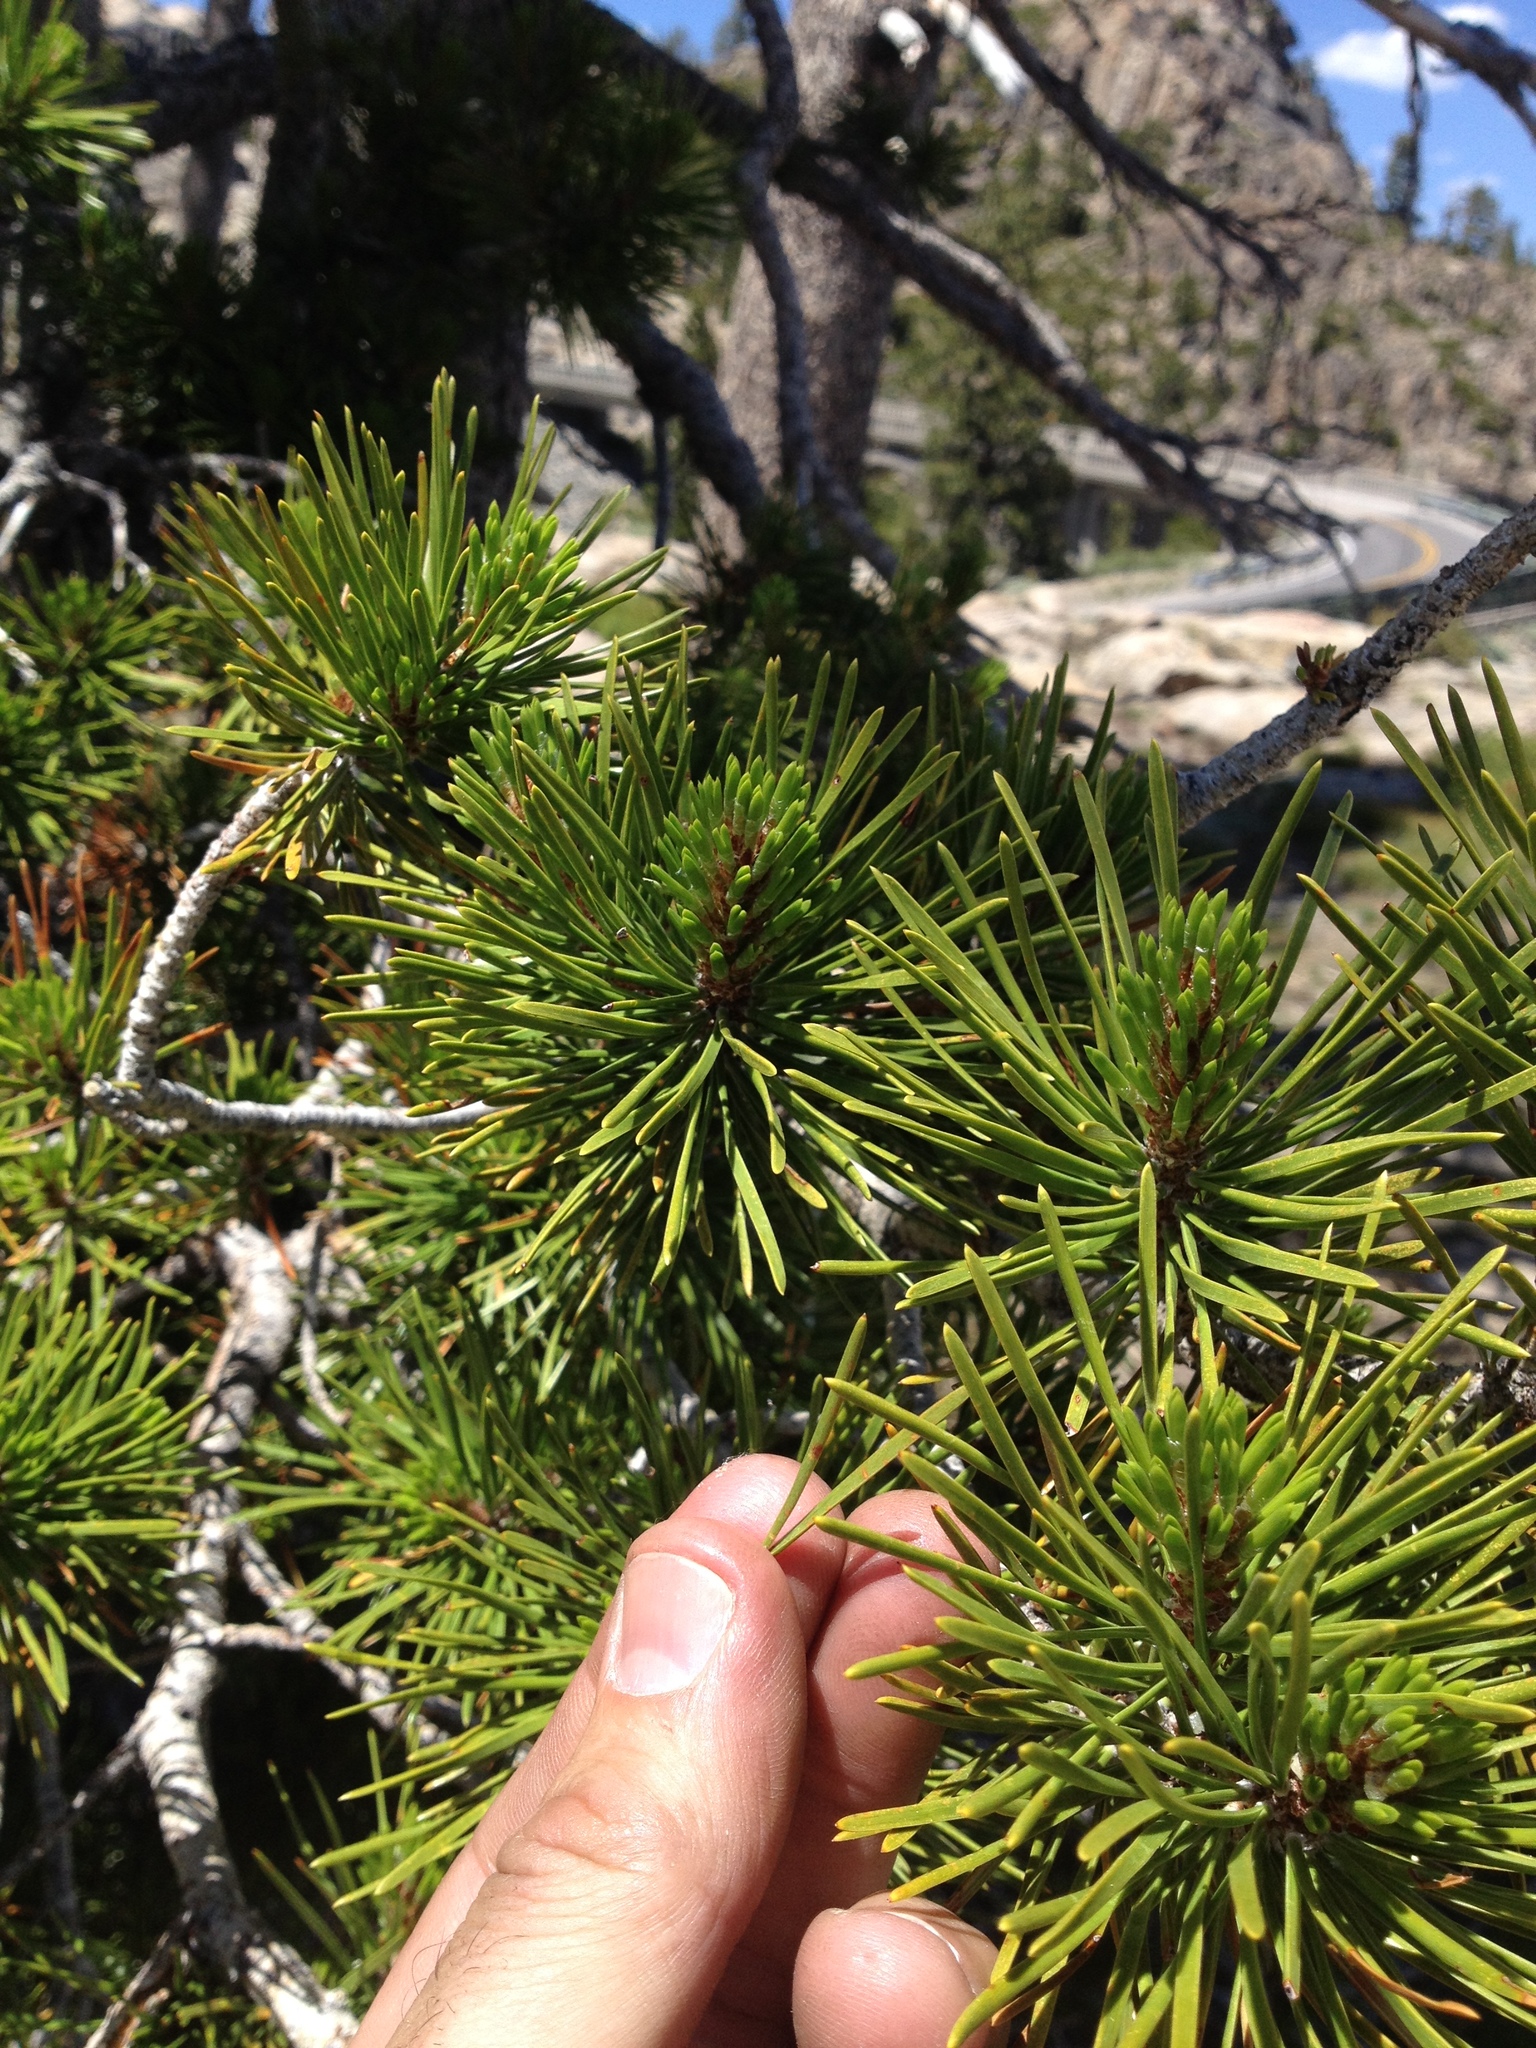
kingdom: Plantae
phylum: Tracheophyta
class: Pinopsida
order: Pinales
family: Pinaceae
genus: Pinus
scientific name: Pinus contorta
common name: Lodgepole pine
